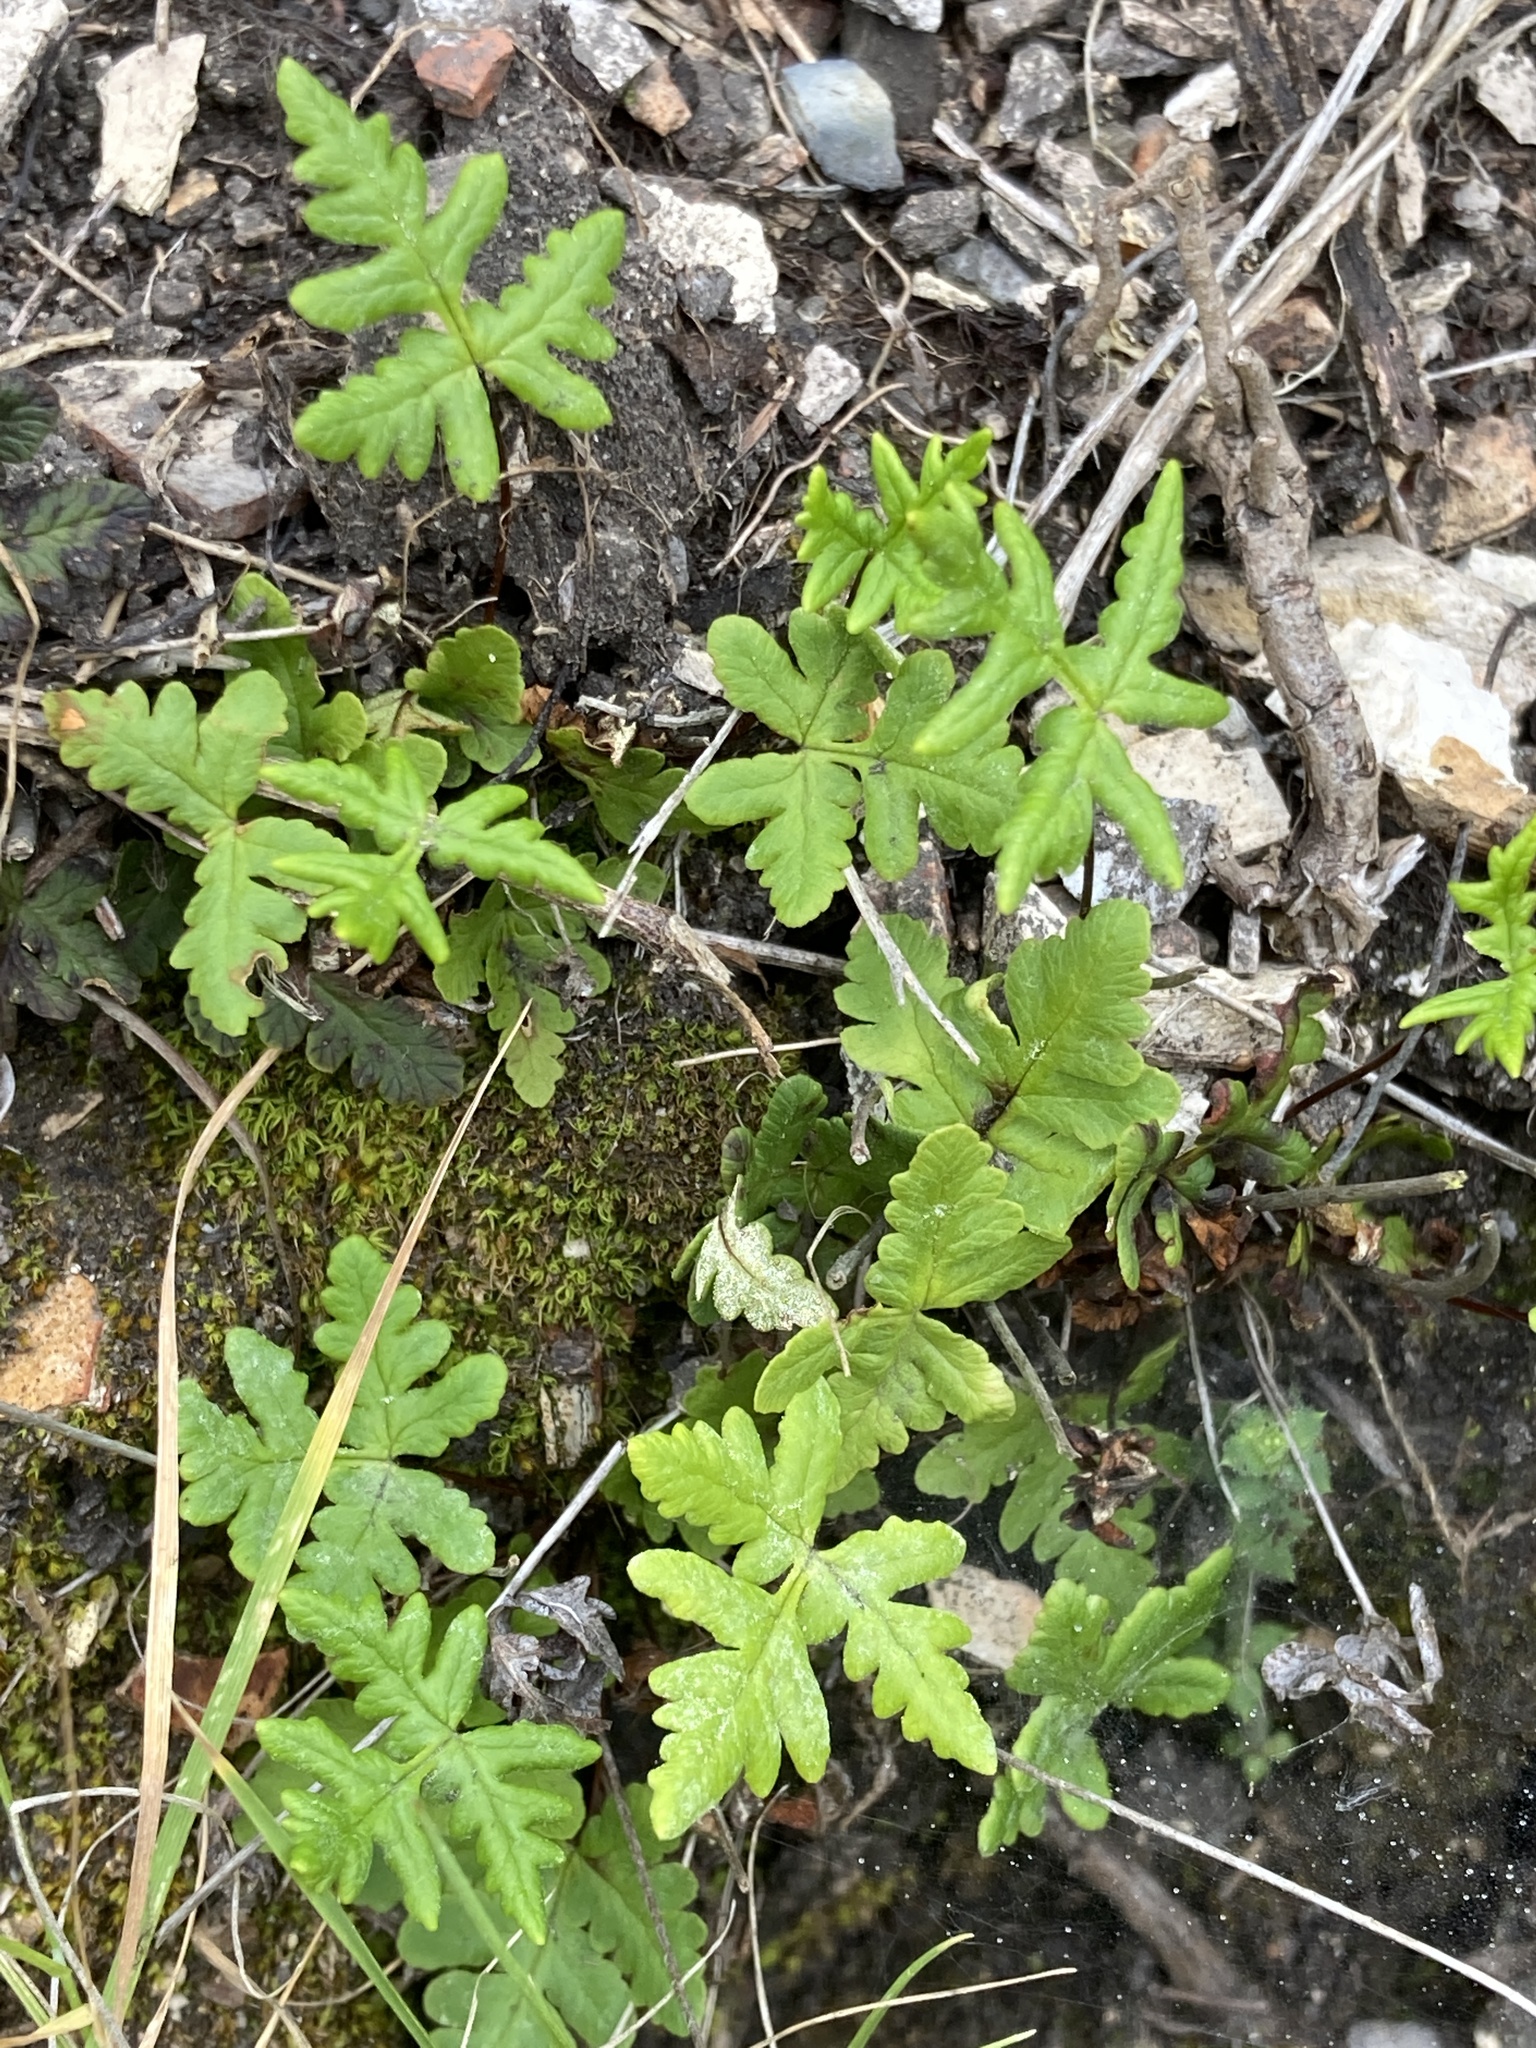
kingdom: Plantae
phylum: Tracheophyta
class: Polypodiopsida
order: Polypodiales
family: Pteridaceae
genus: Pentagramma
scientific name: Pentagramma triangularis
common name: Gold fern
